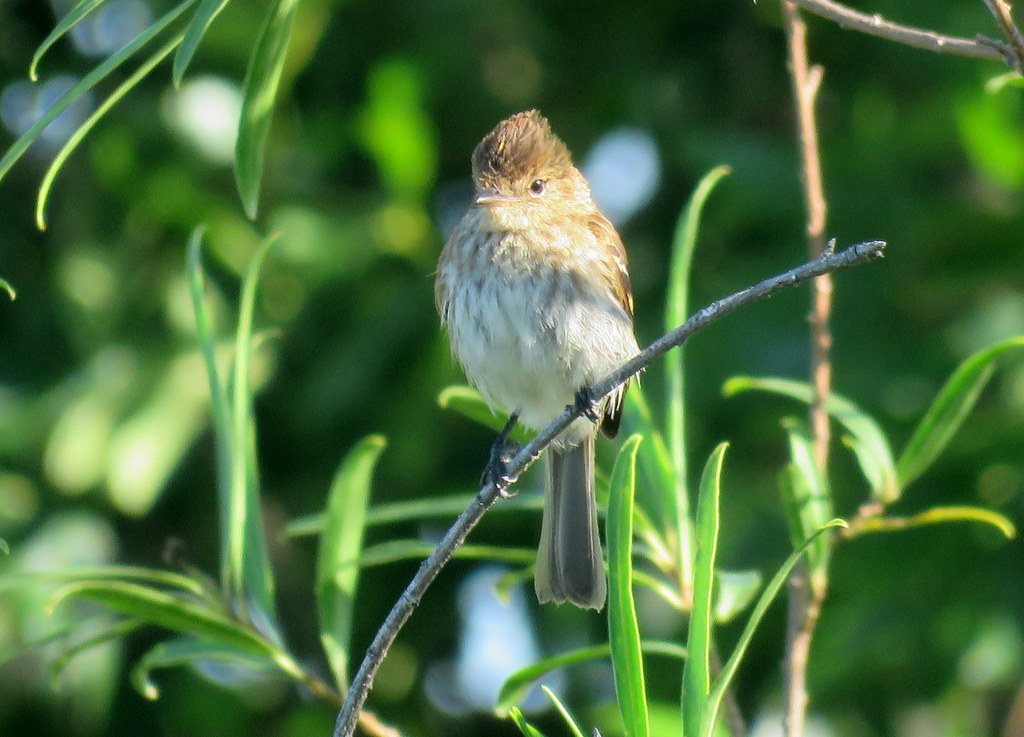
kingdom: Animalia
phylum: Chordata
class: Aves
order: Passeriformes
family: Tyrannidae
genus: Myiophobus
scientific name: Myiophobus fasciatus
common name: Bran-colored flycatcher
